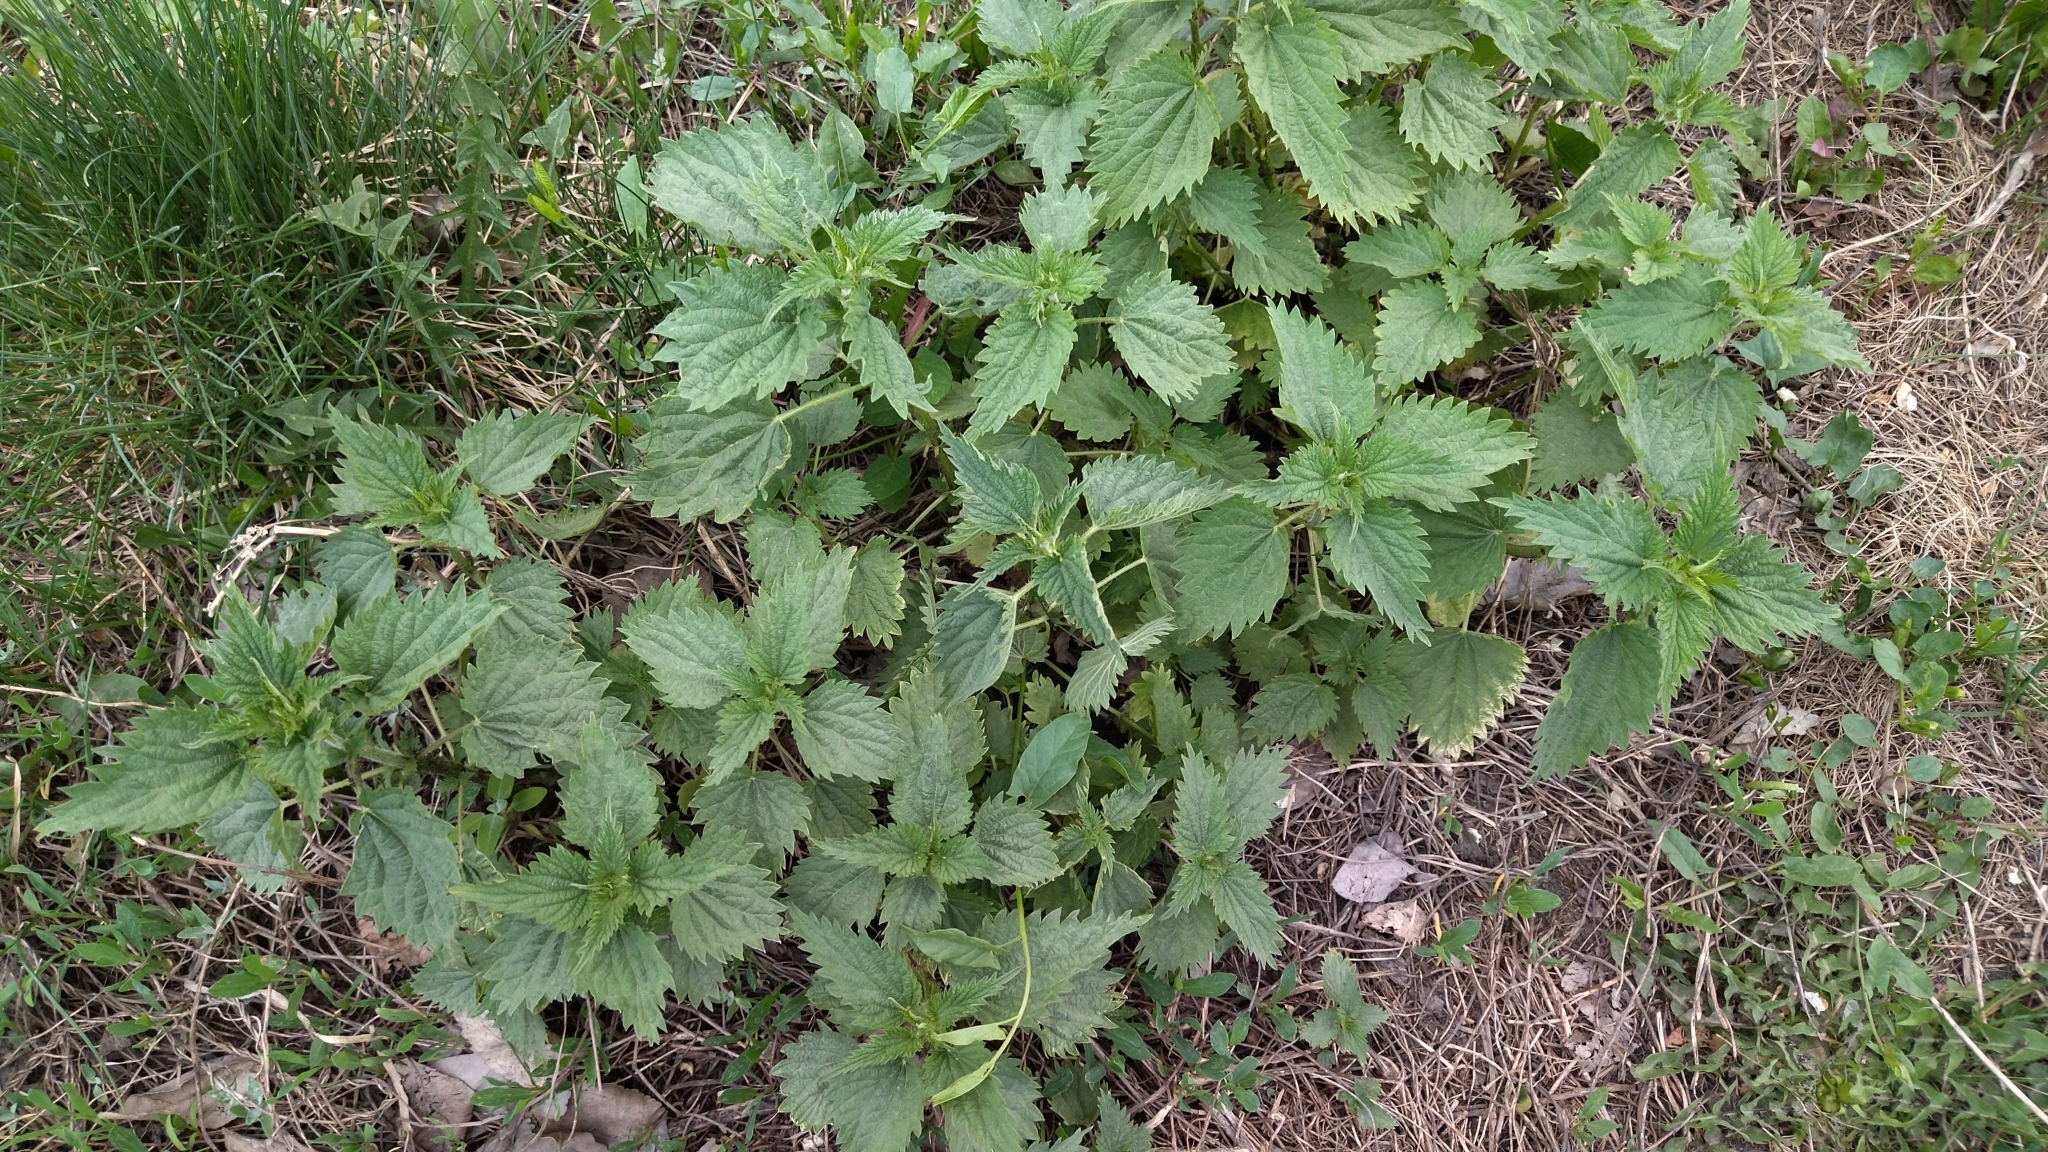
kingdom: Plantae
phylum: Tracheophyta
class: Magnoliopsida
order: Rosales
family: Urticaceae
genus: Urtica
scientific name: Urtica dioica
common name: Common nettle
